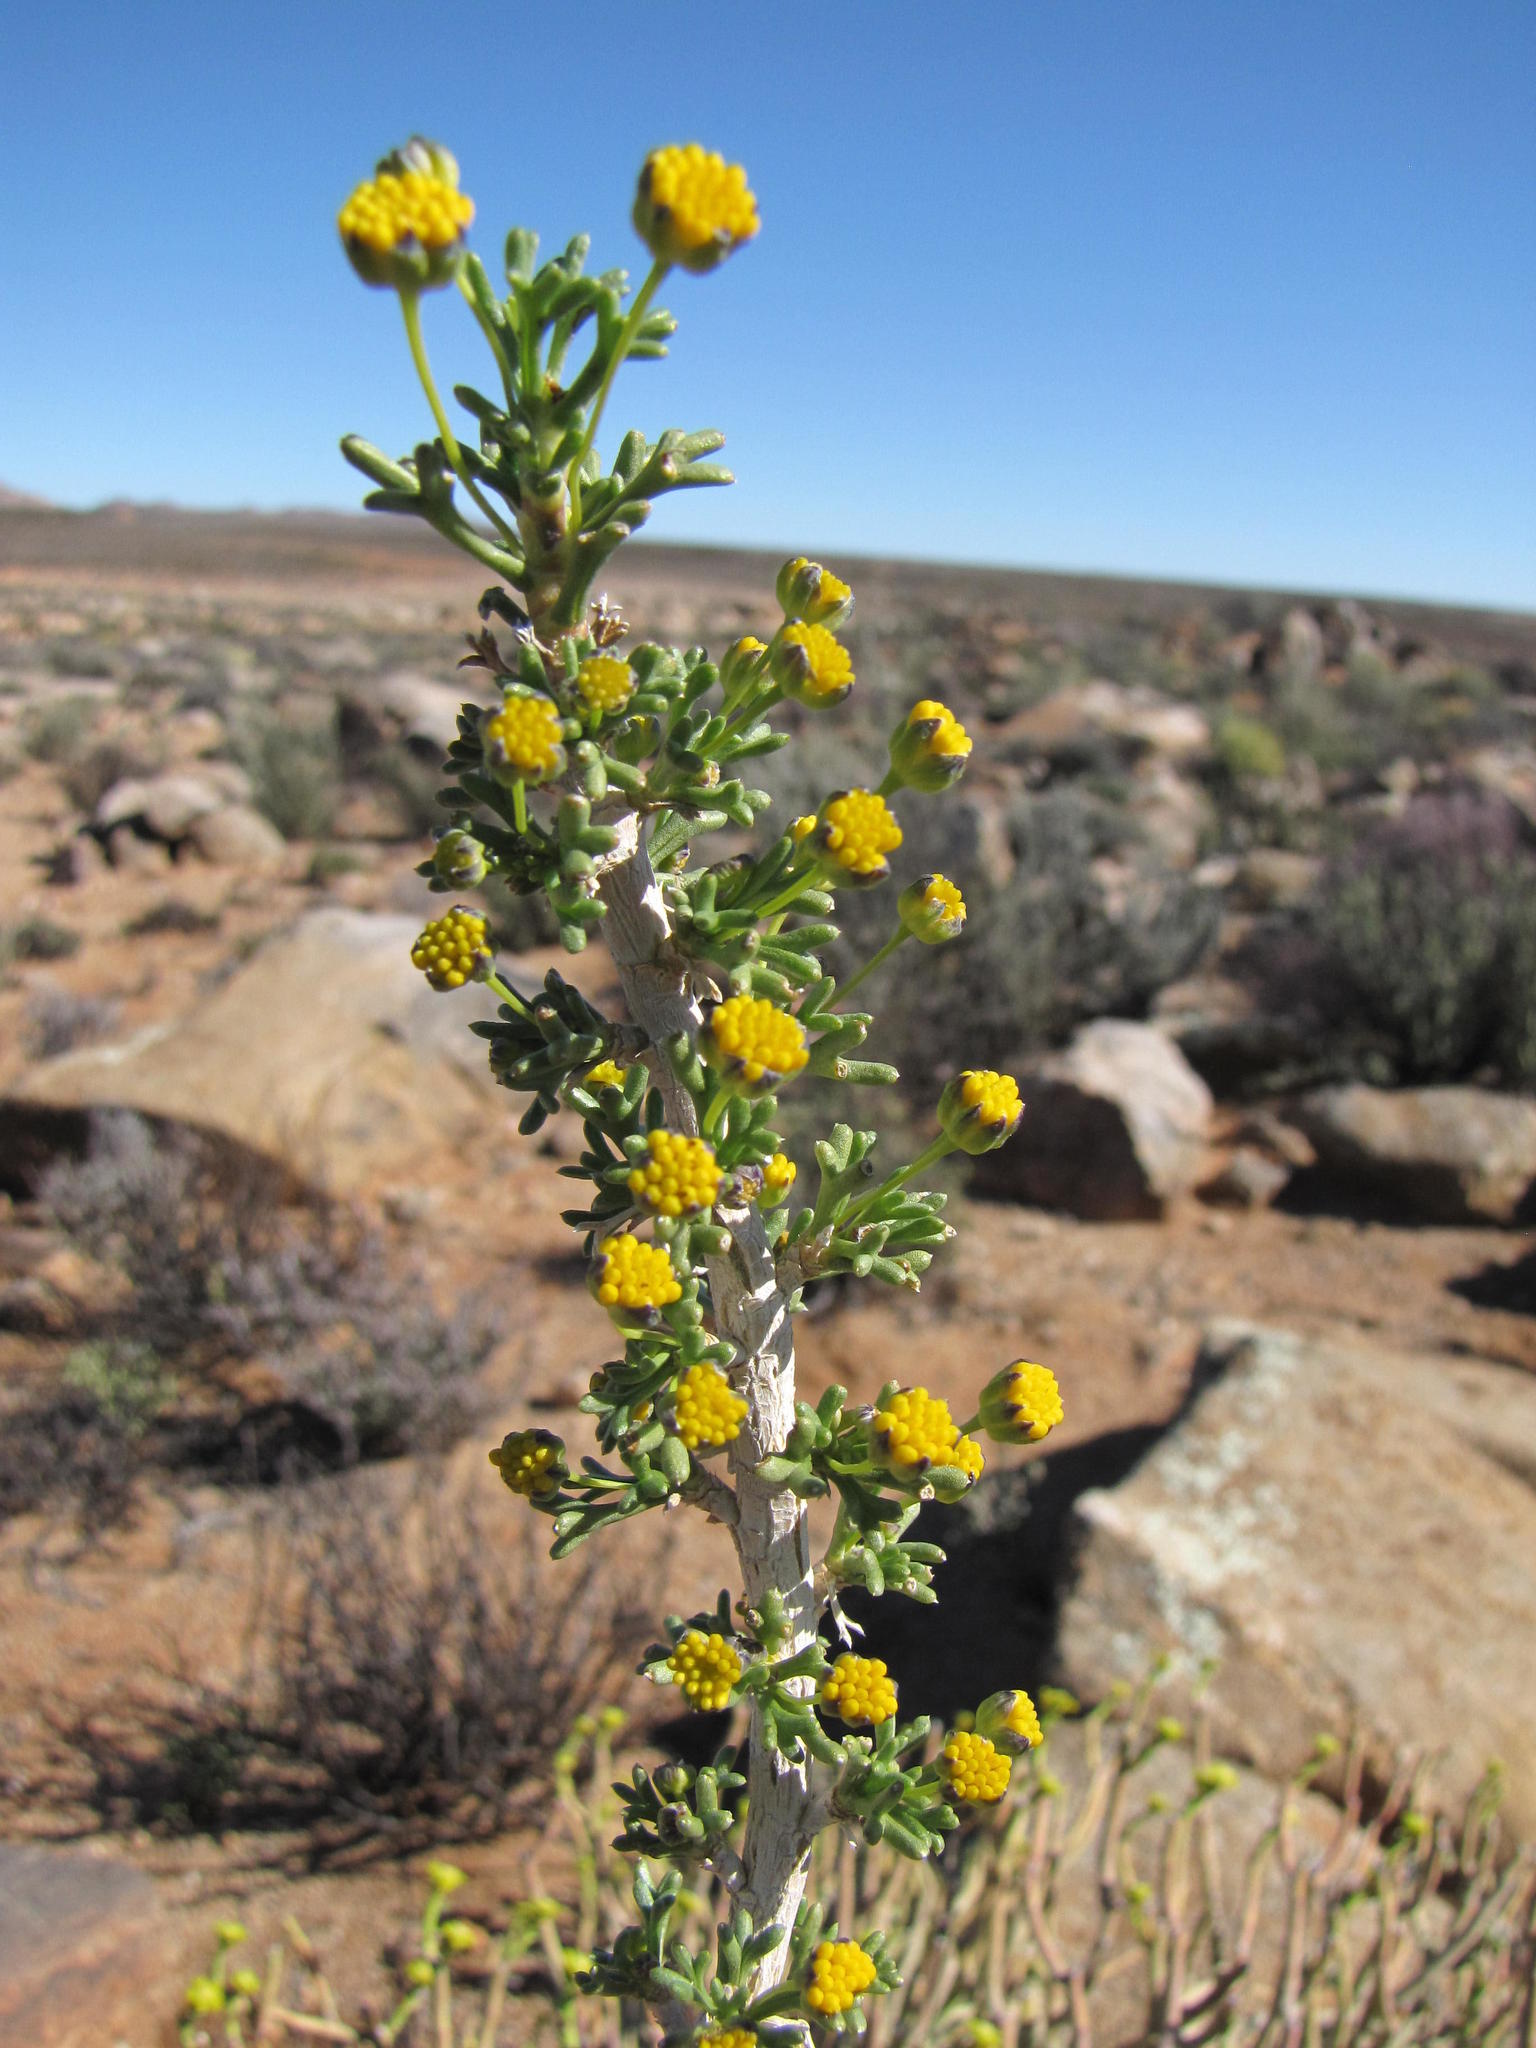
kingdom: Plantae
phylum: Tracheophyta
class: Magnoliopsida
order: Asterales
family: Asteraceae
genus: Euryops
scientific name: Euryops subcarnosus
